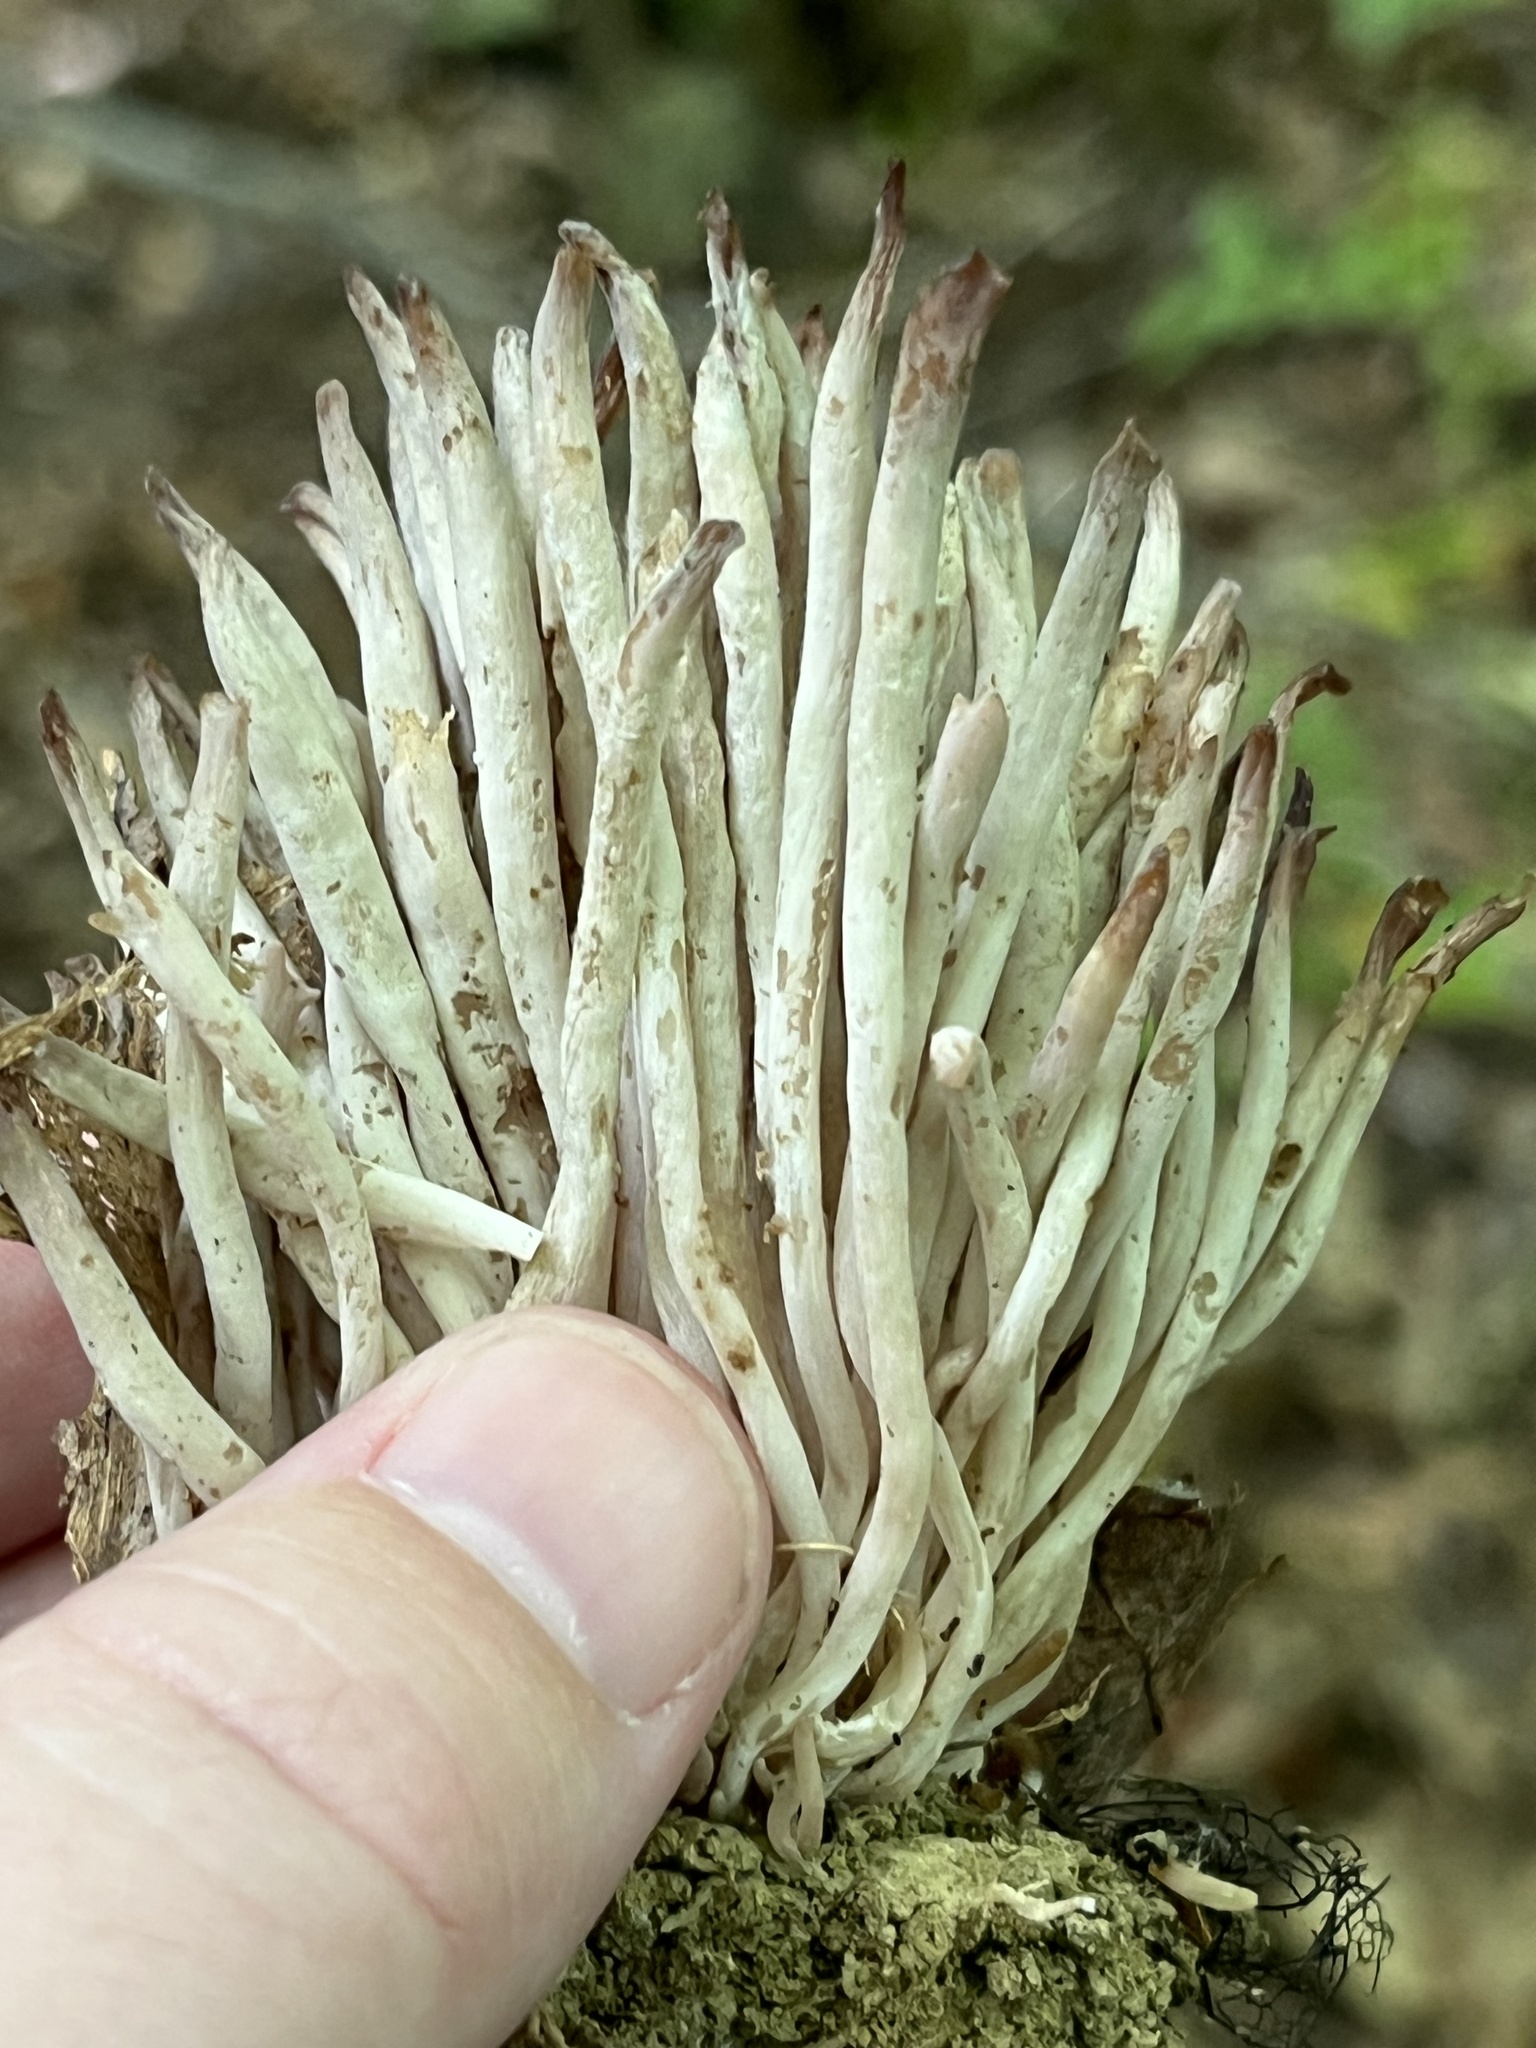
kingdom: Fungi
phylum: Basidiomycota
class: Agaricomycetes
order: Agaricales
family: Clavariaceae
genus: Clavaria
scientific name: Clavaria fragilis
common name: White spindles
